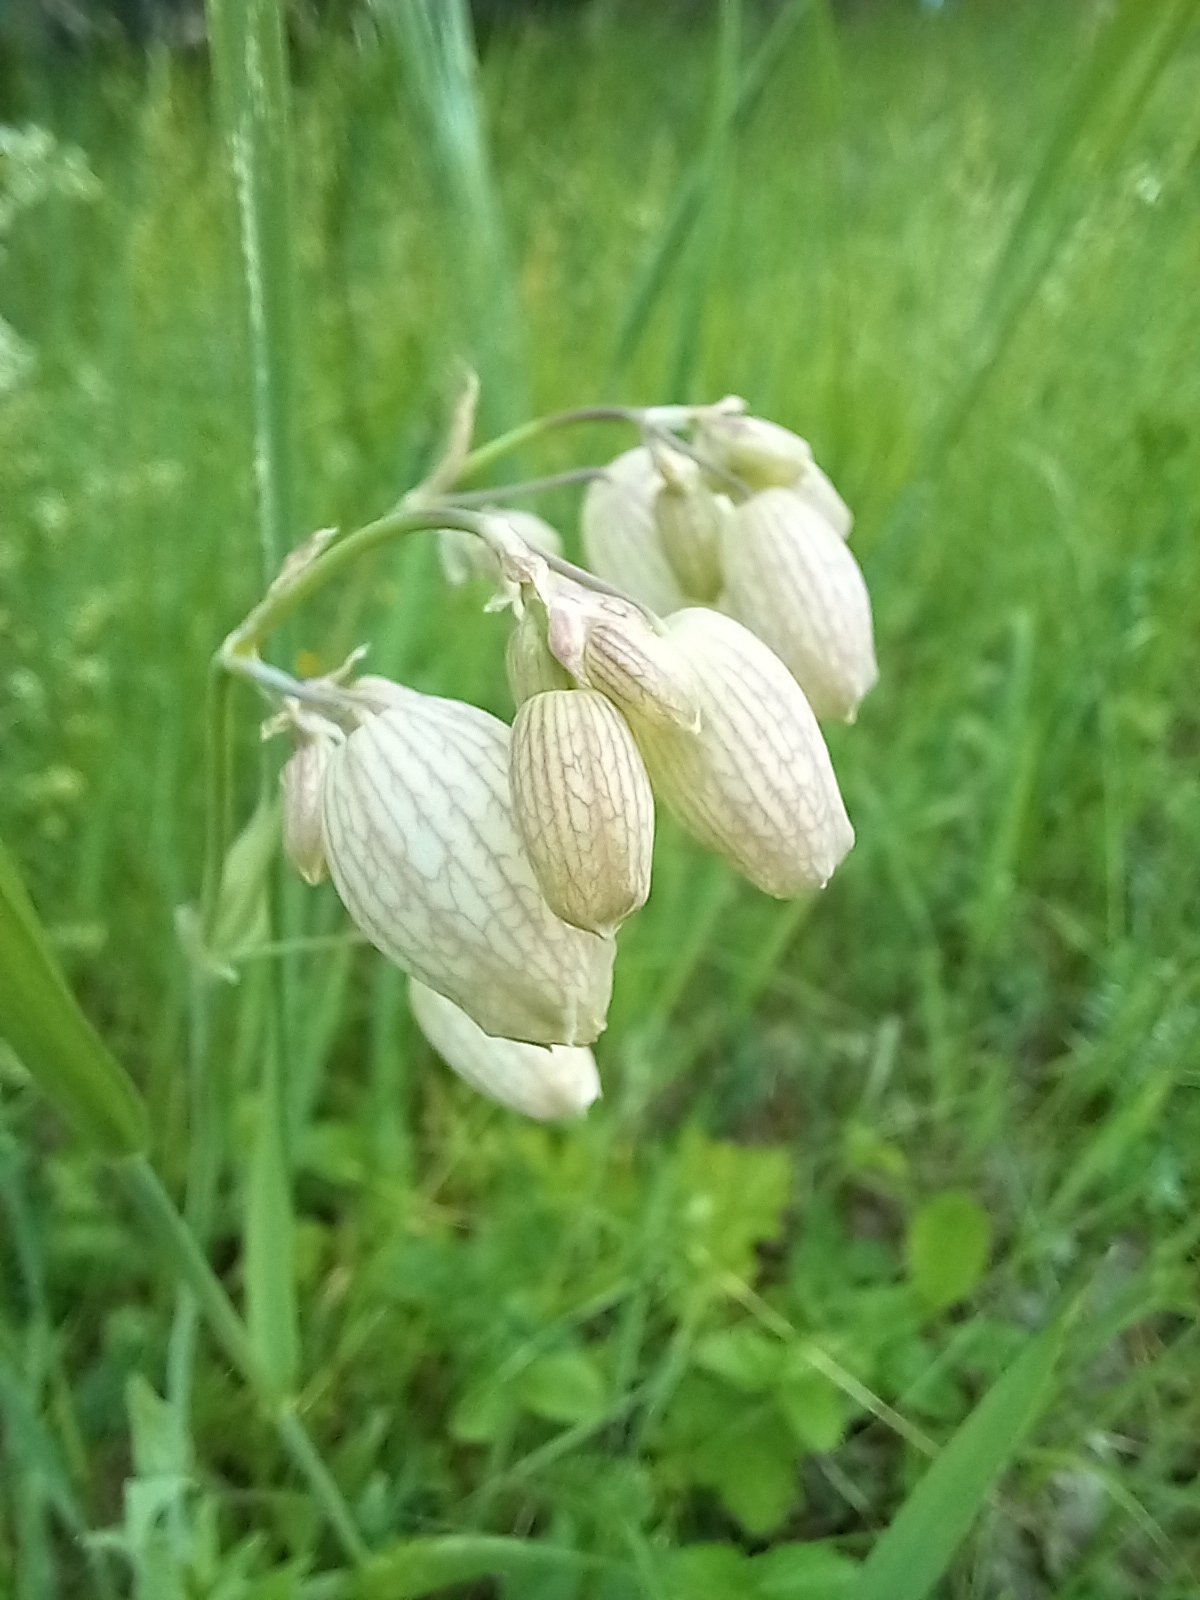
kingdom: Plantae
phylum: Tracheophyta
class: Magnoliopsida
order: Caryophyllales
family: Caryophyllaceae
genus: Silene
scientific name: Silene vulgaris
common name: Bladder campion
